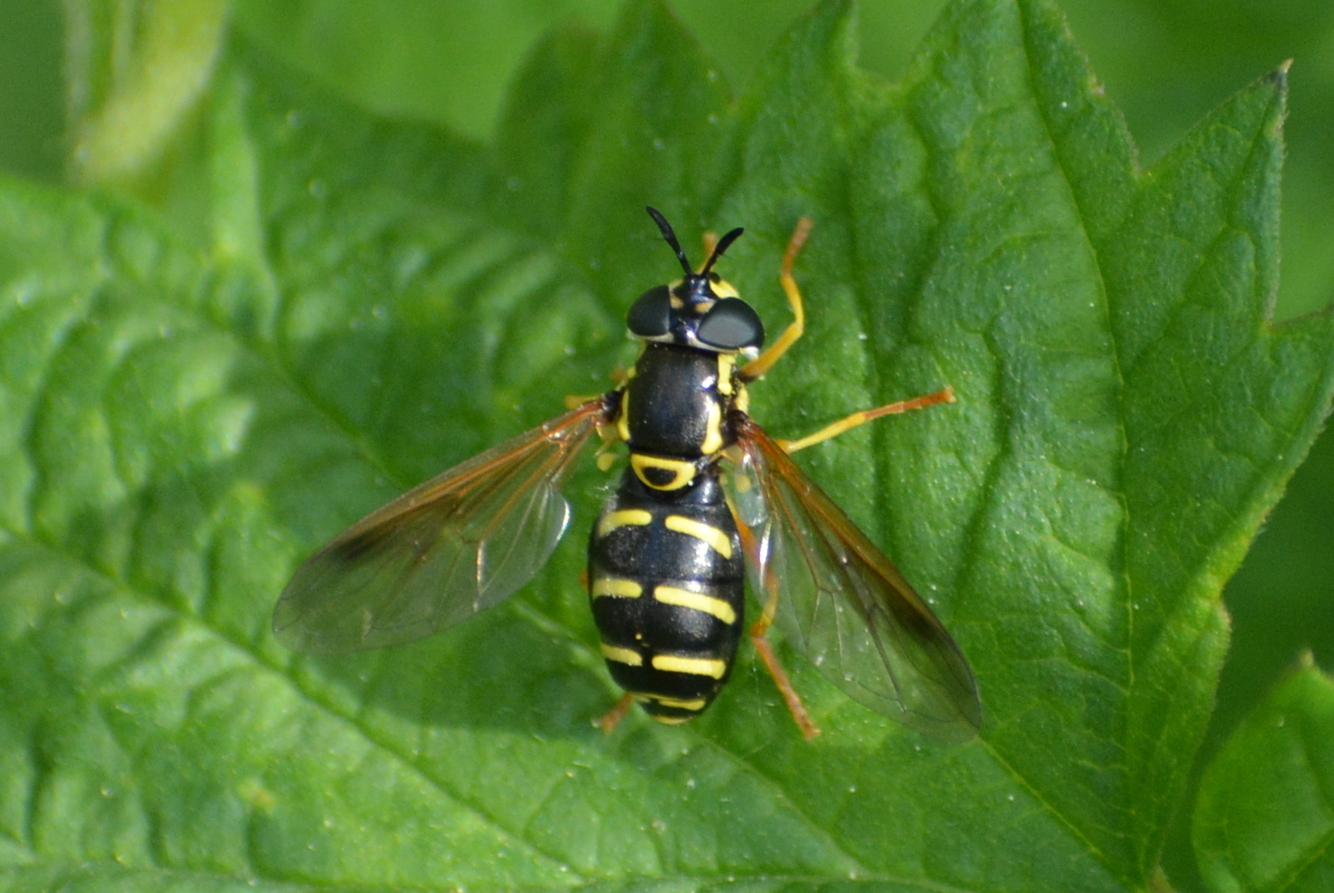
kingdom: Animalia
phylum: Arthropoda
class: Insecta
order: Diptera
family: Syrphidae
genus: Chrysotoxum
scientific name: Chrysotoxum festivum
